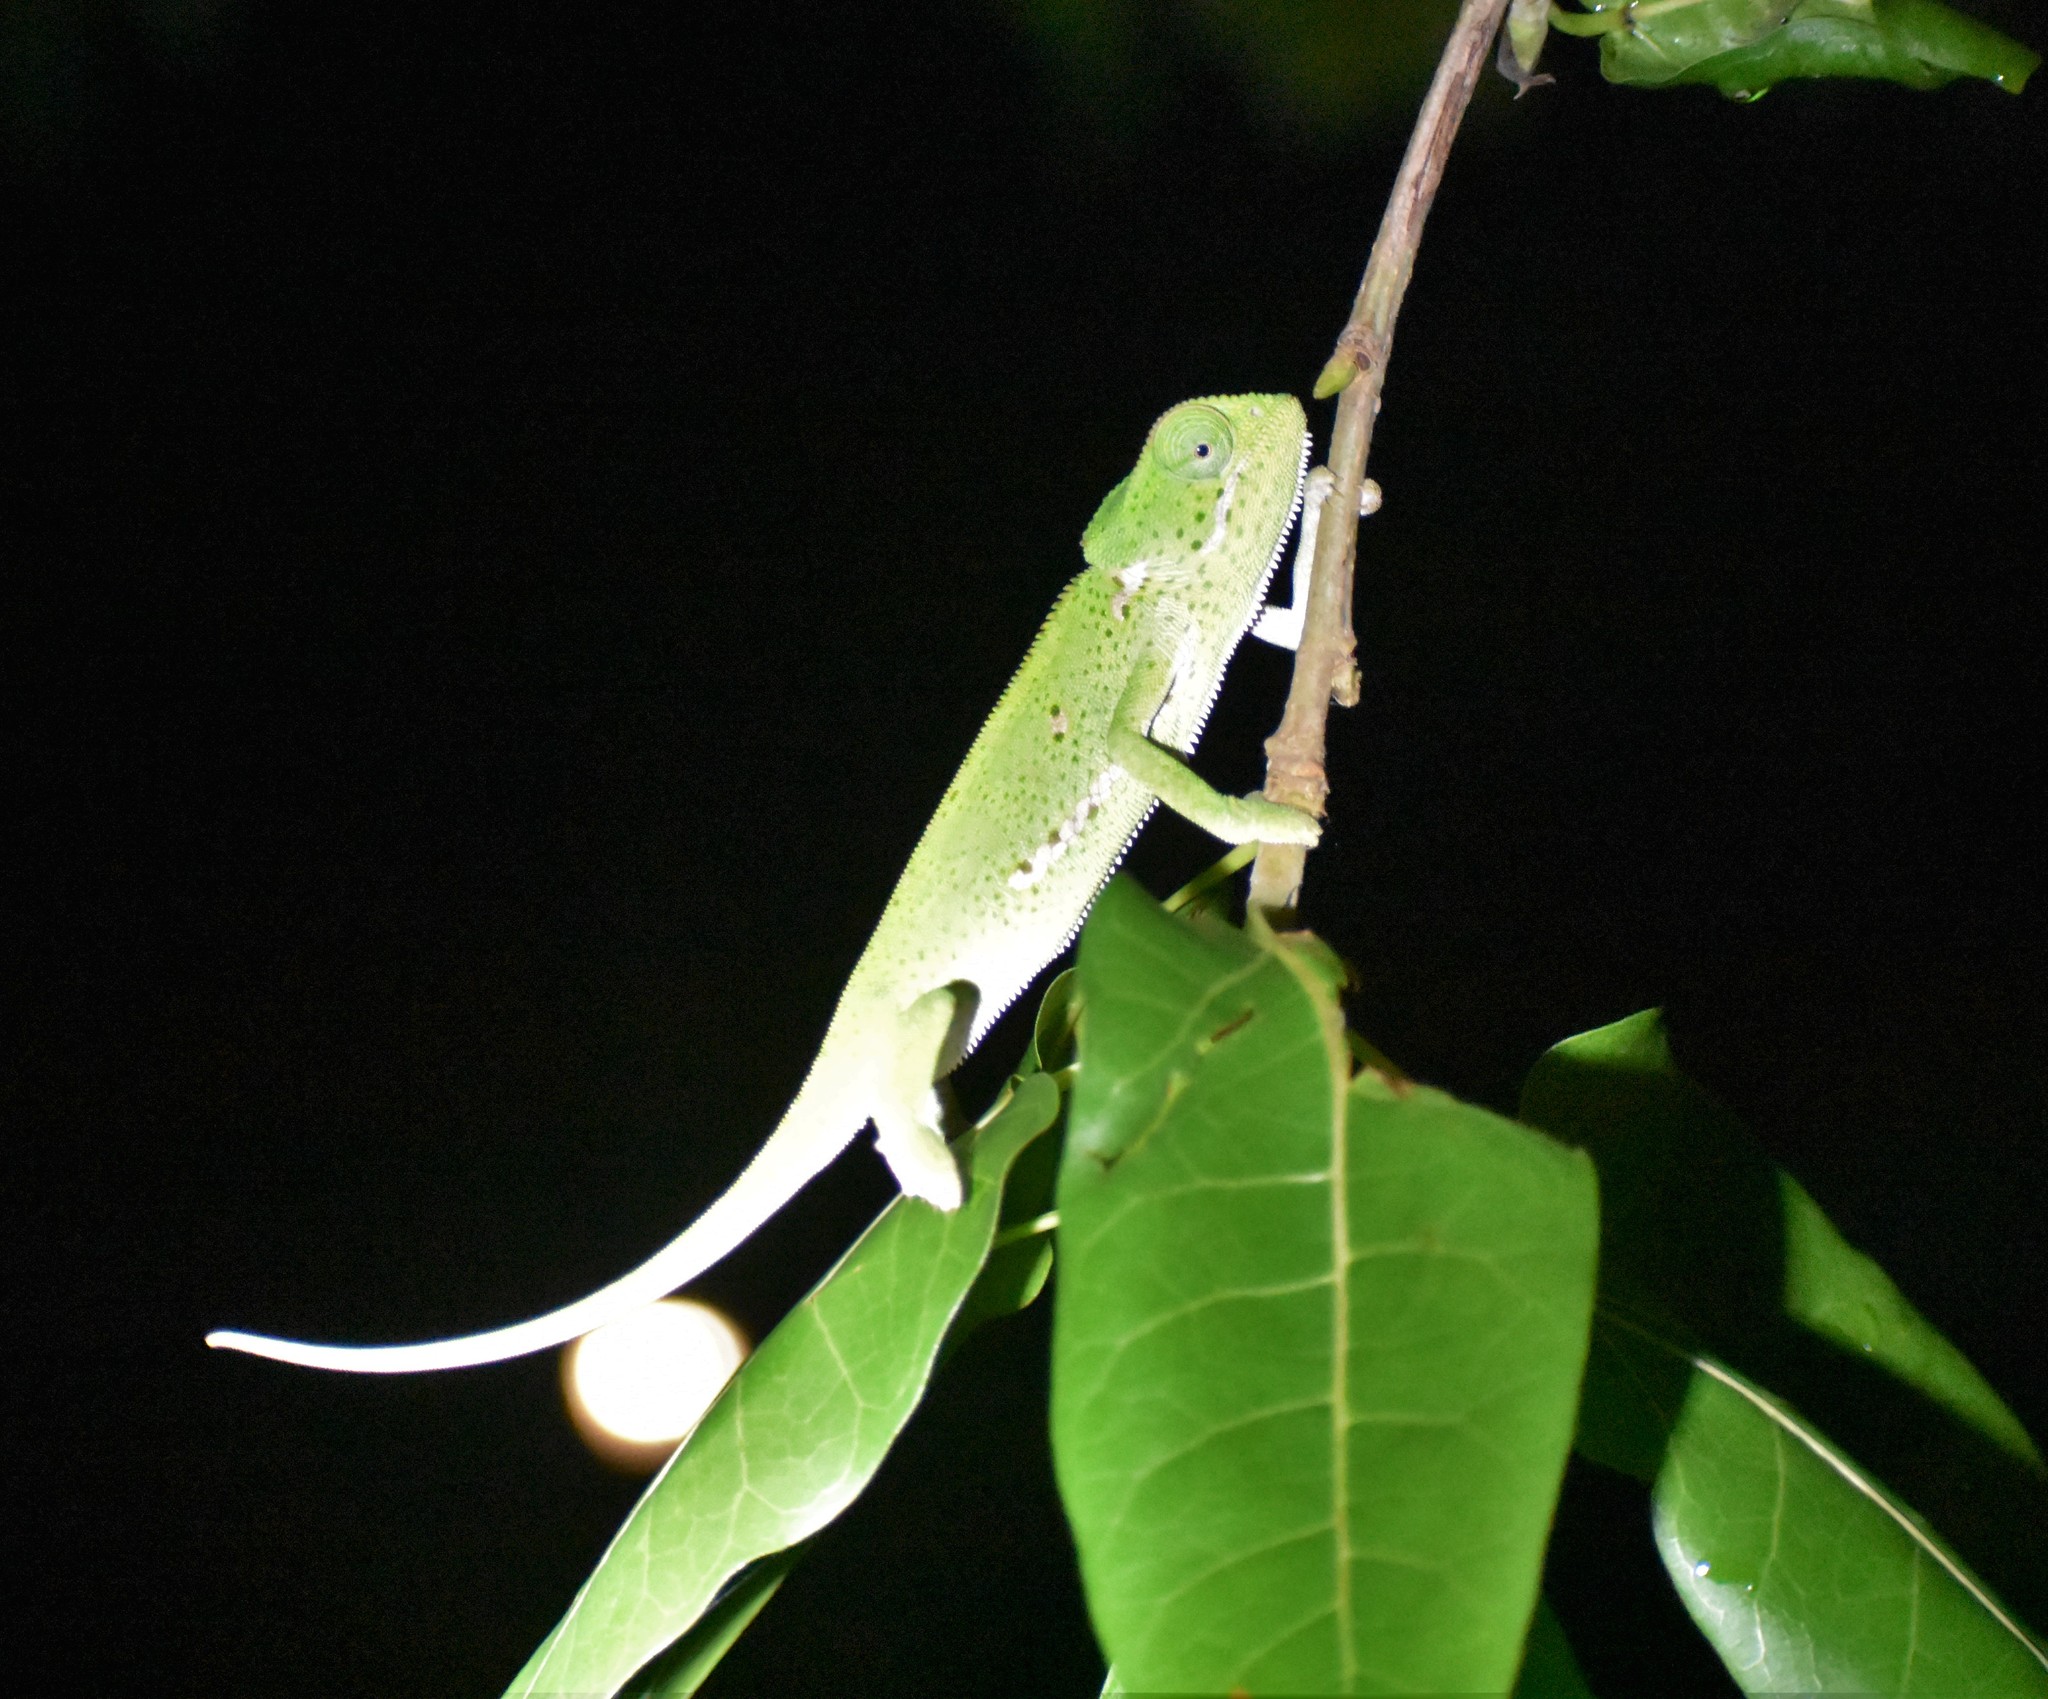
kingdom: Animalia
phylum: Chordata
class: Squamata
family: Chamaeleonidae
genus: Chamaeleo
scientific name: Chamaeleo dilepis
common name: Flapneck chameleon
